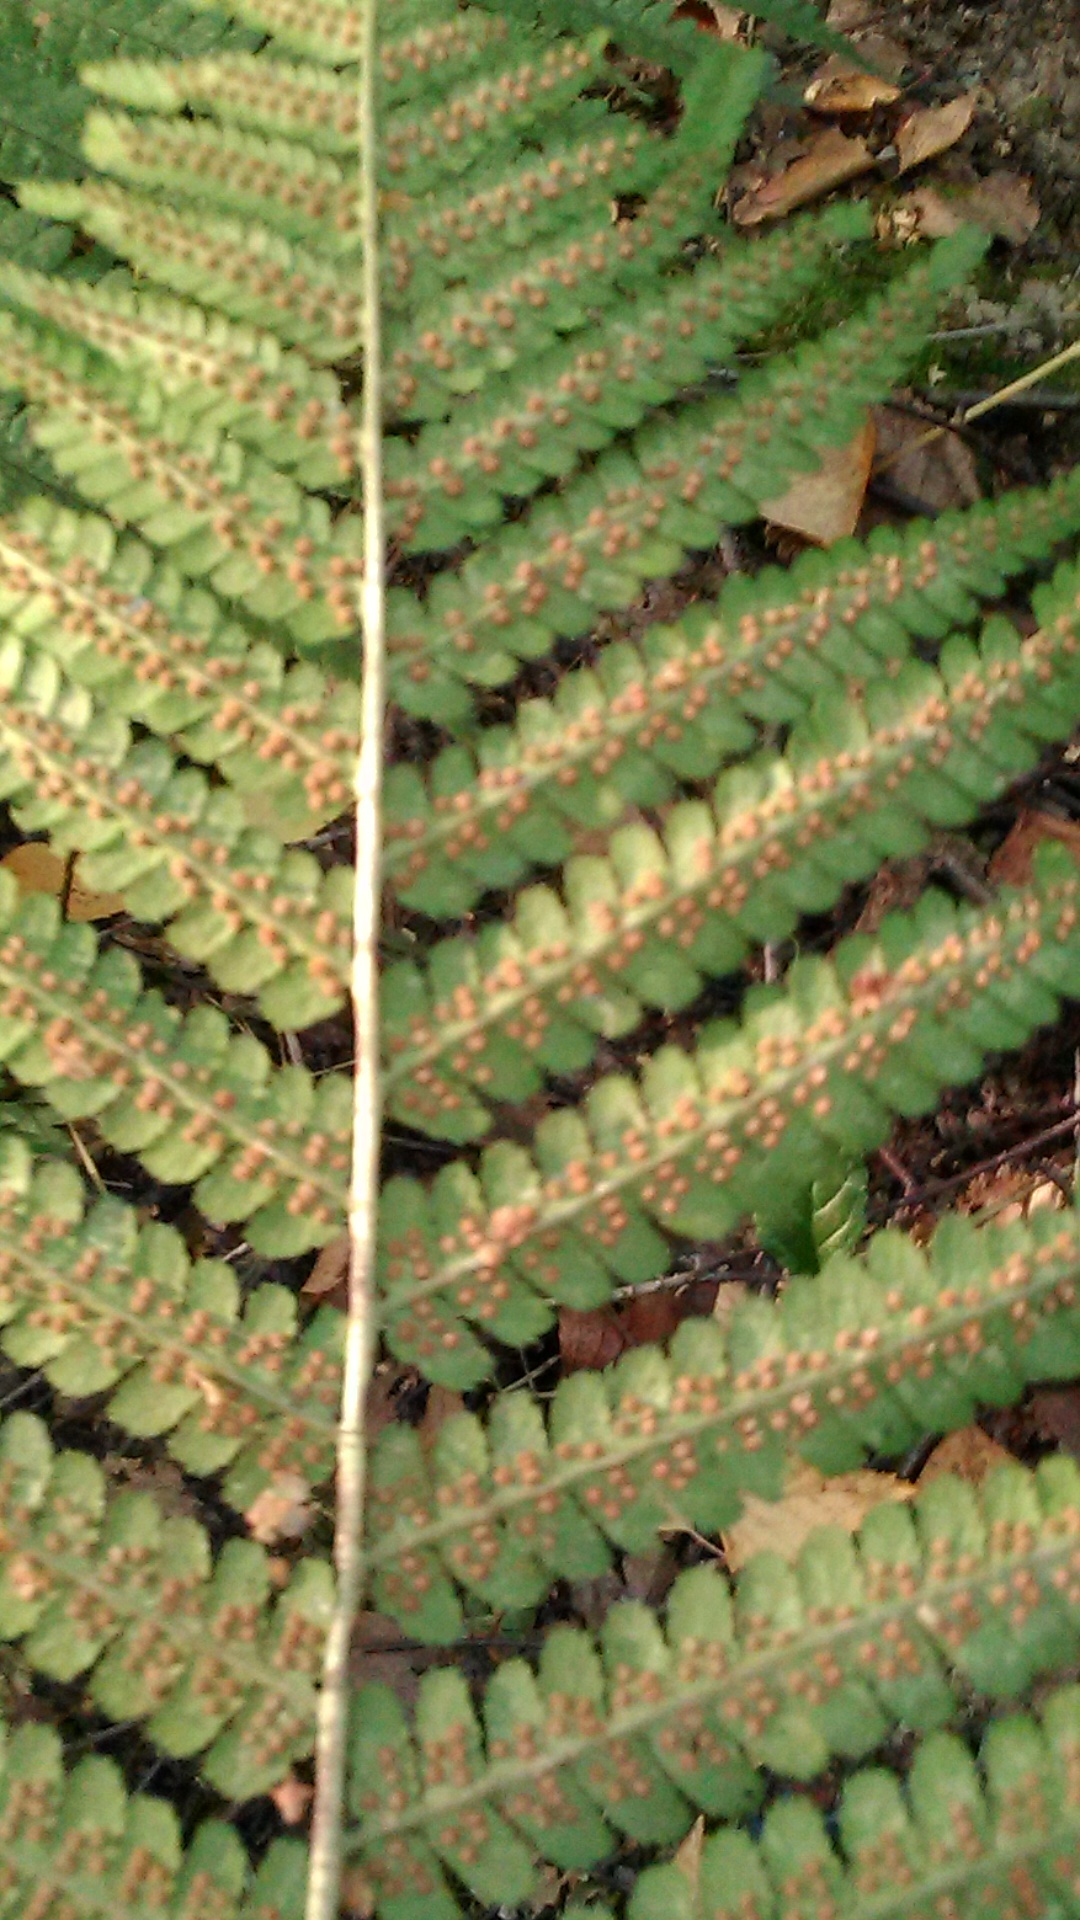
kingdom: Plantae
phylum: Tracheophyta
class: Polypodiopsida
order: Polypodiales
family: Dryopteridaceae
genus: Dryopteris
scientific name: Dryopteris filix-mas
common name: Male fern
